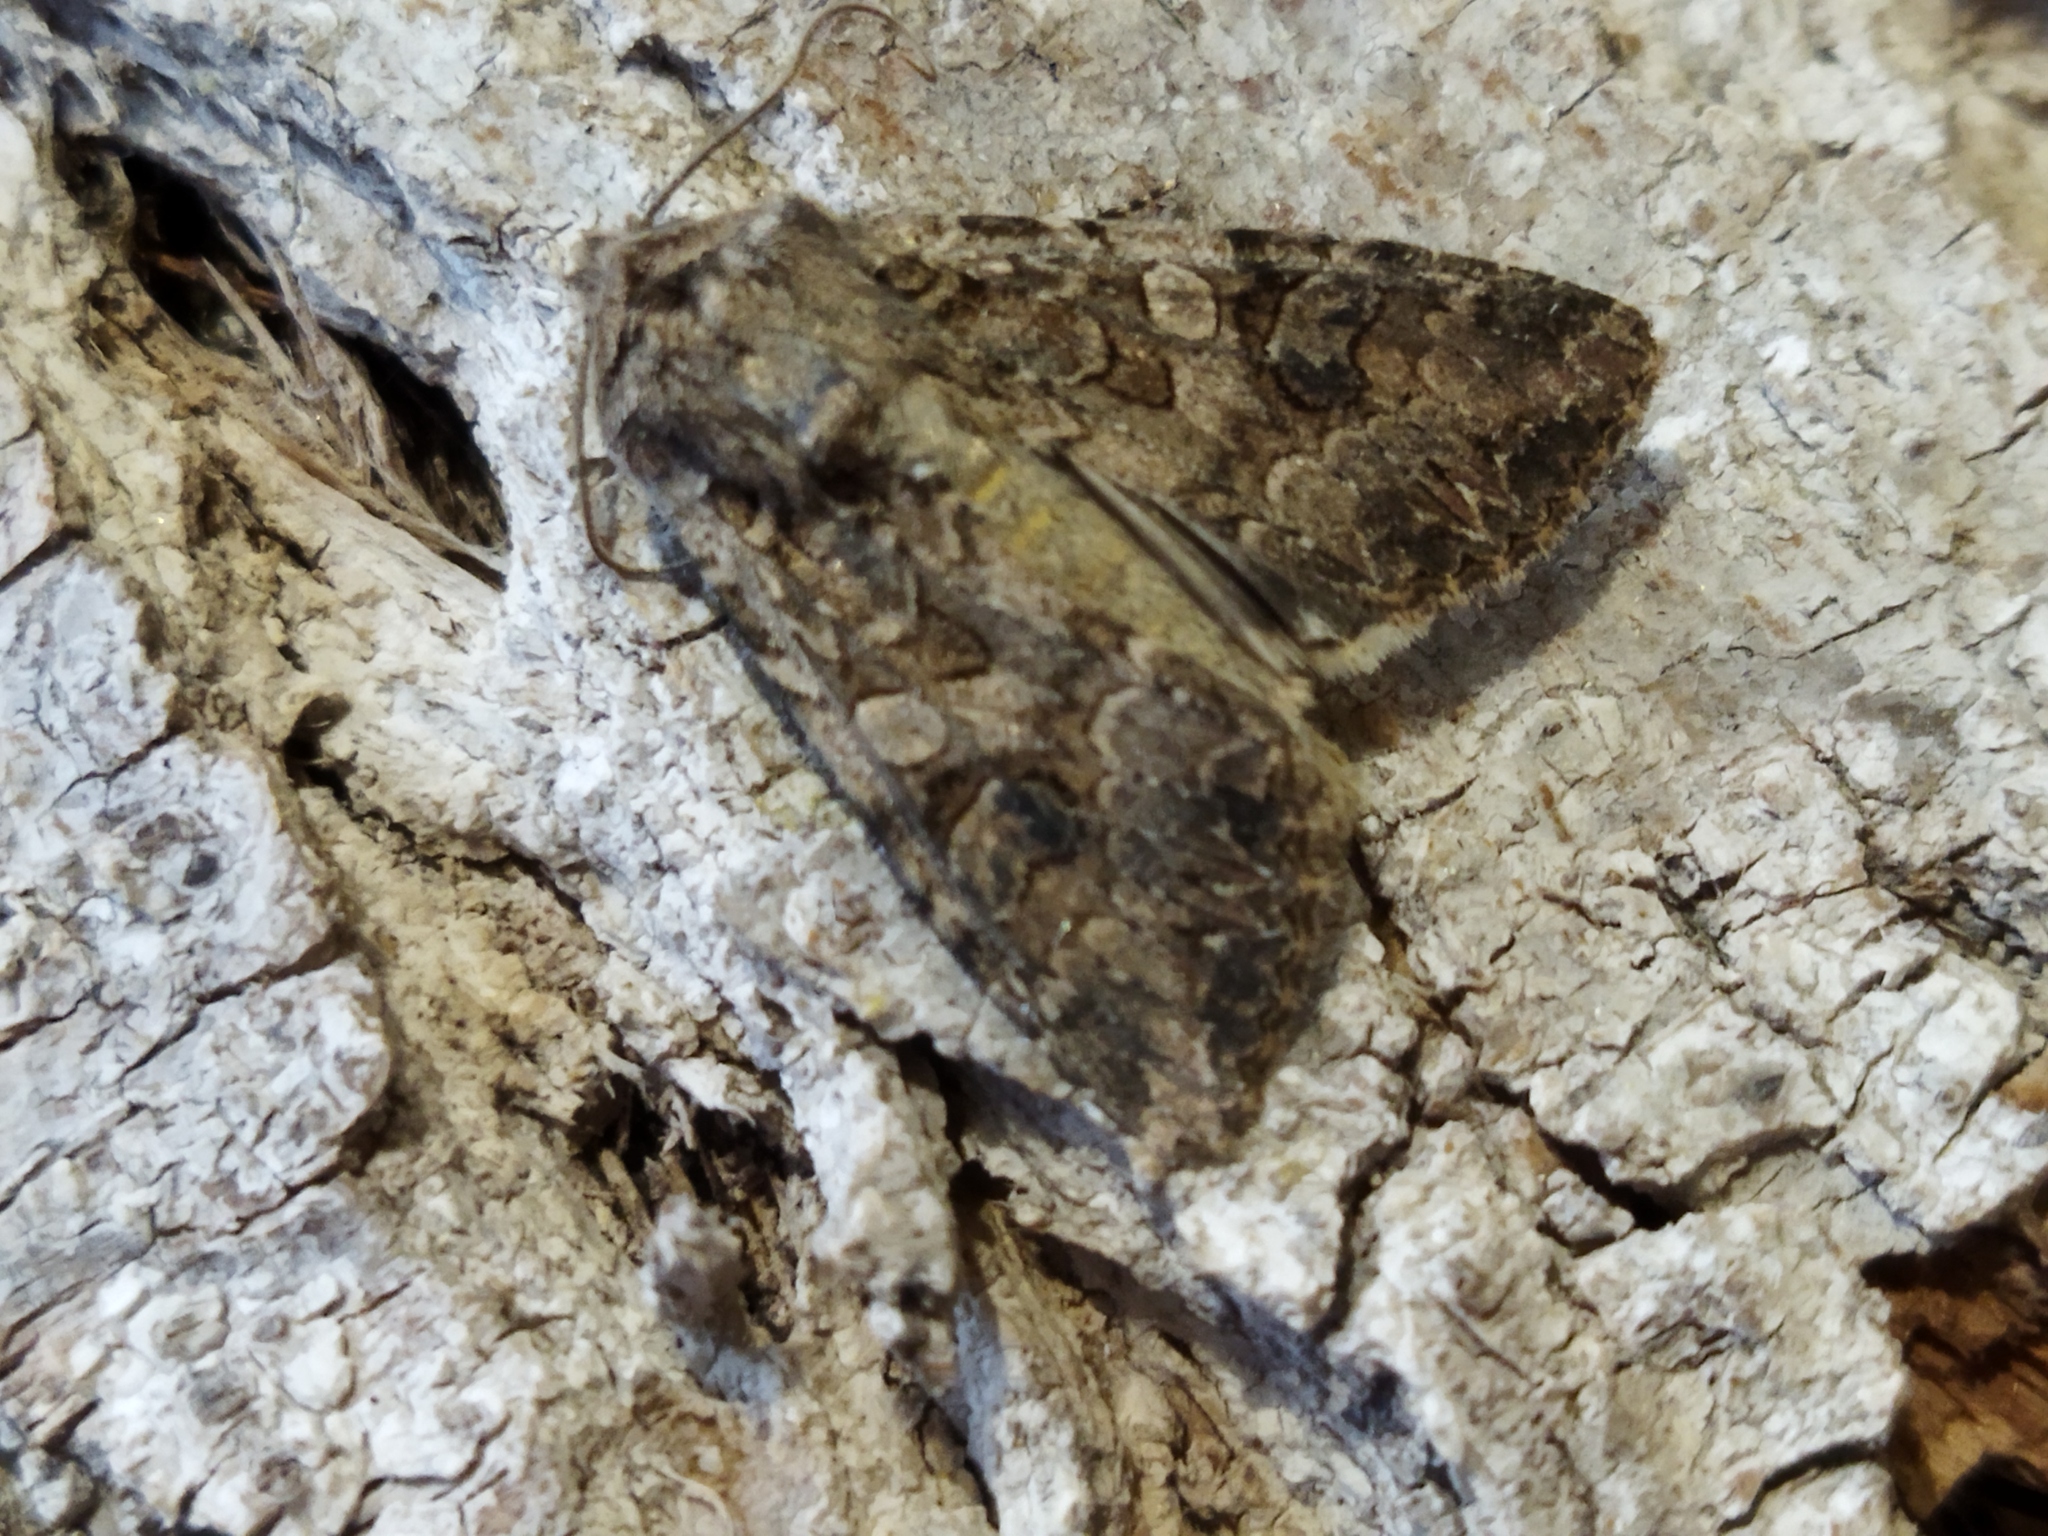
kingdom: Animalia
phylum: Arthropoda
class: Insecta
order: Lepidoptera
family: Noctuidae
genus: Anarta
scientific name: Anarta trifolii
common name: Clover cutworm moth
